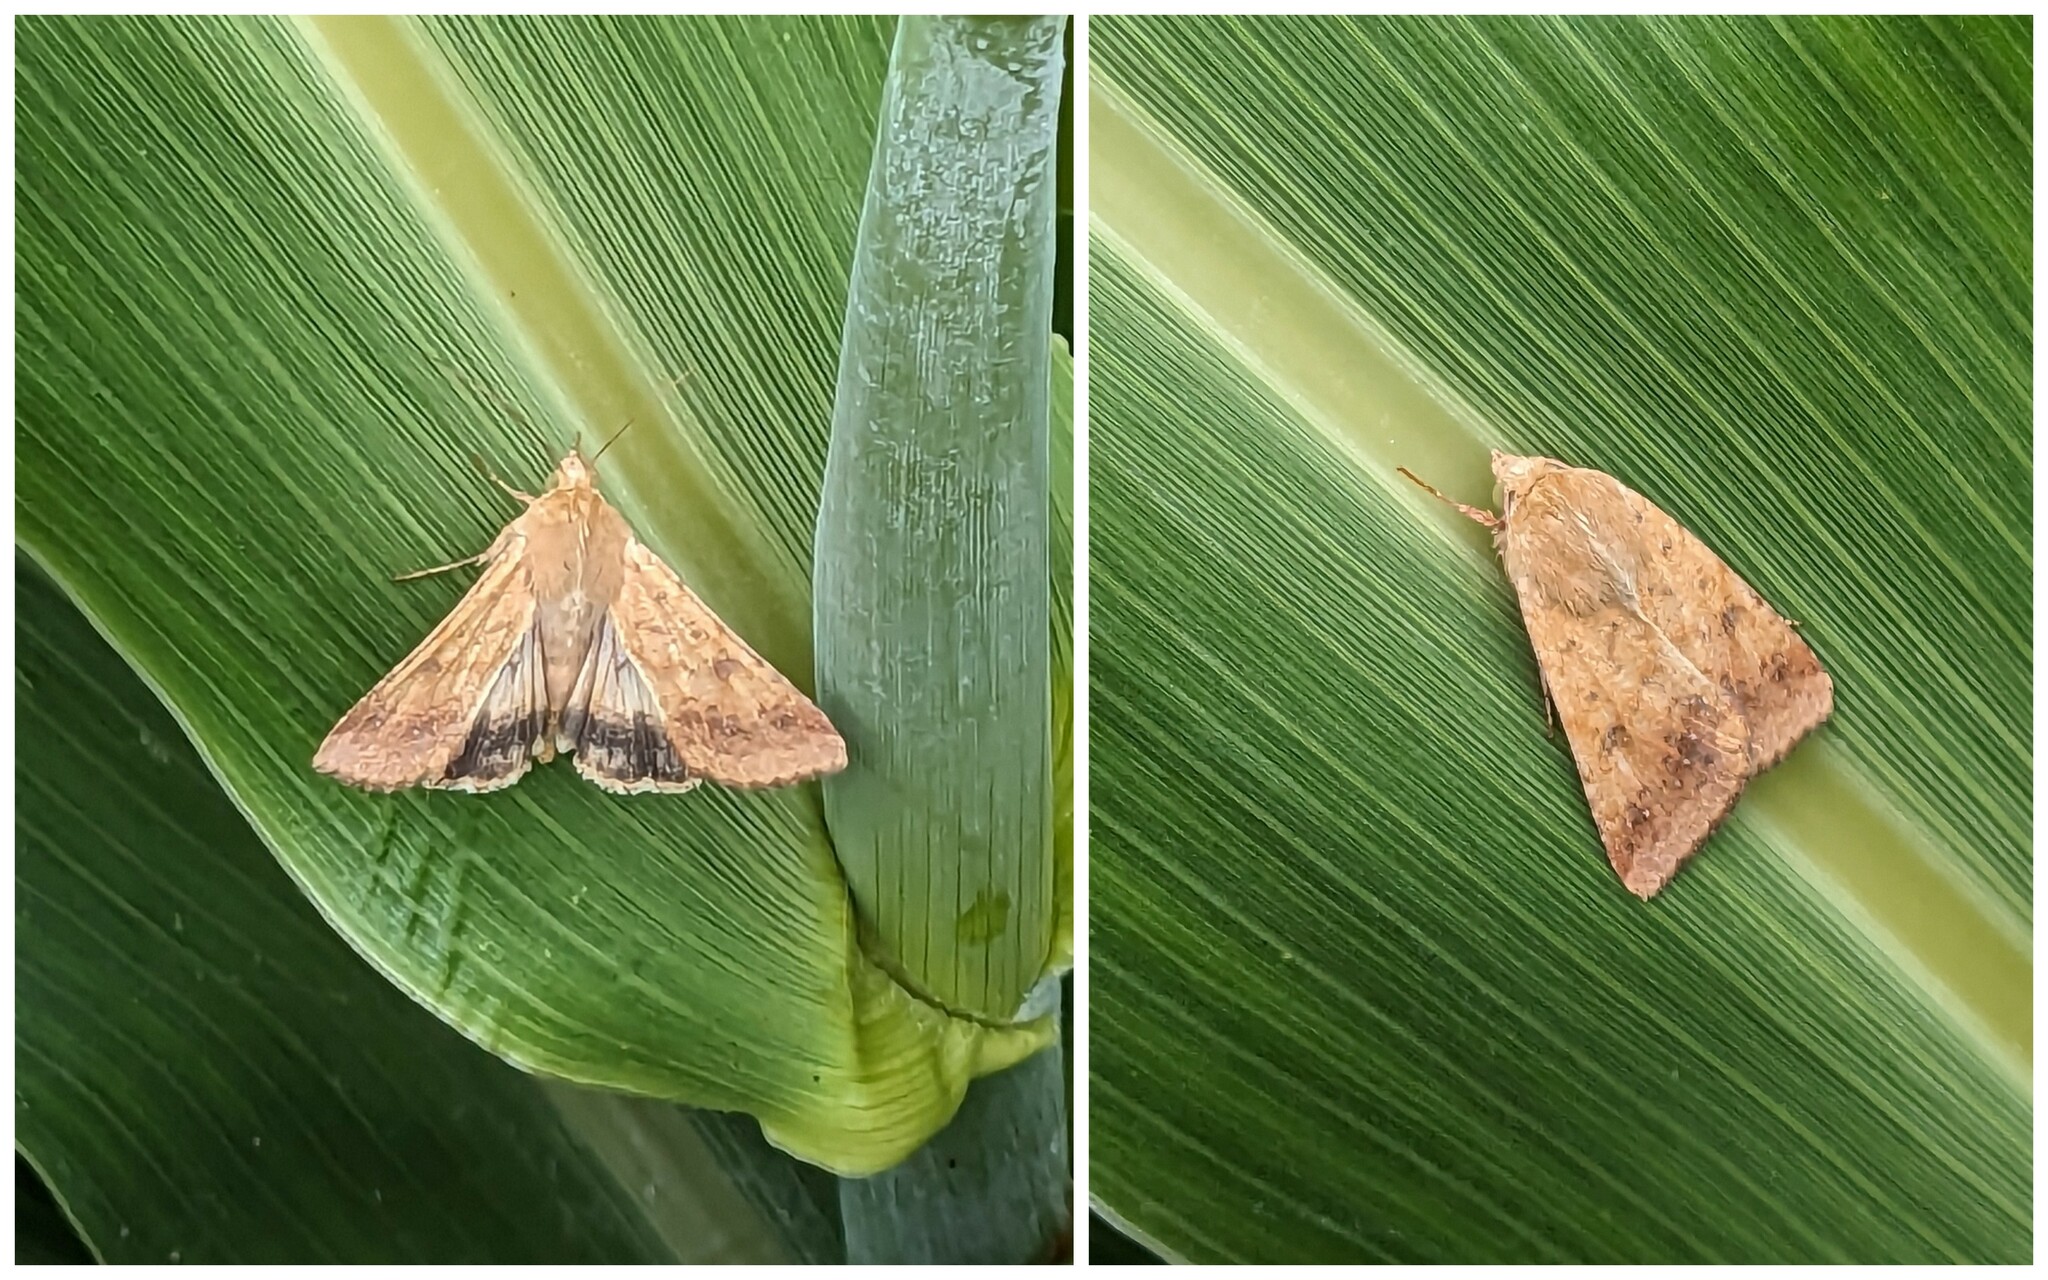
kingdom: Animalia
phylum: Arthropoda
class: Insecta
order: Lepidoptera
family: Noctuidae
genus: Helicoverpa
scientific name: Helicoverpa armigera
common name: Cotton bollworm
